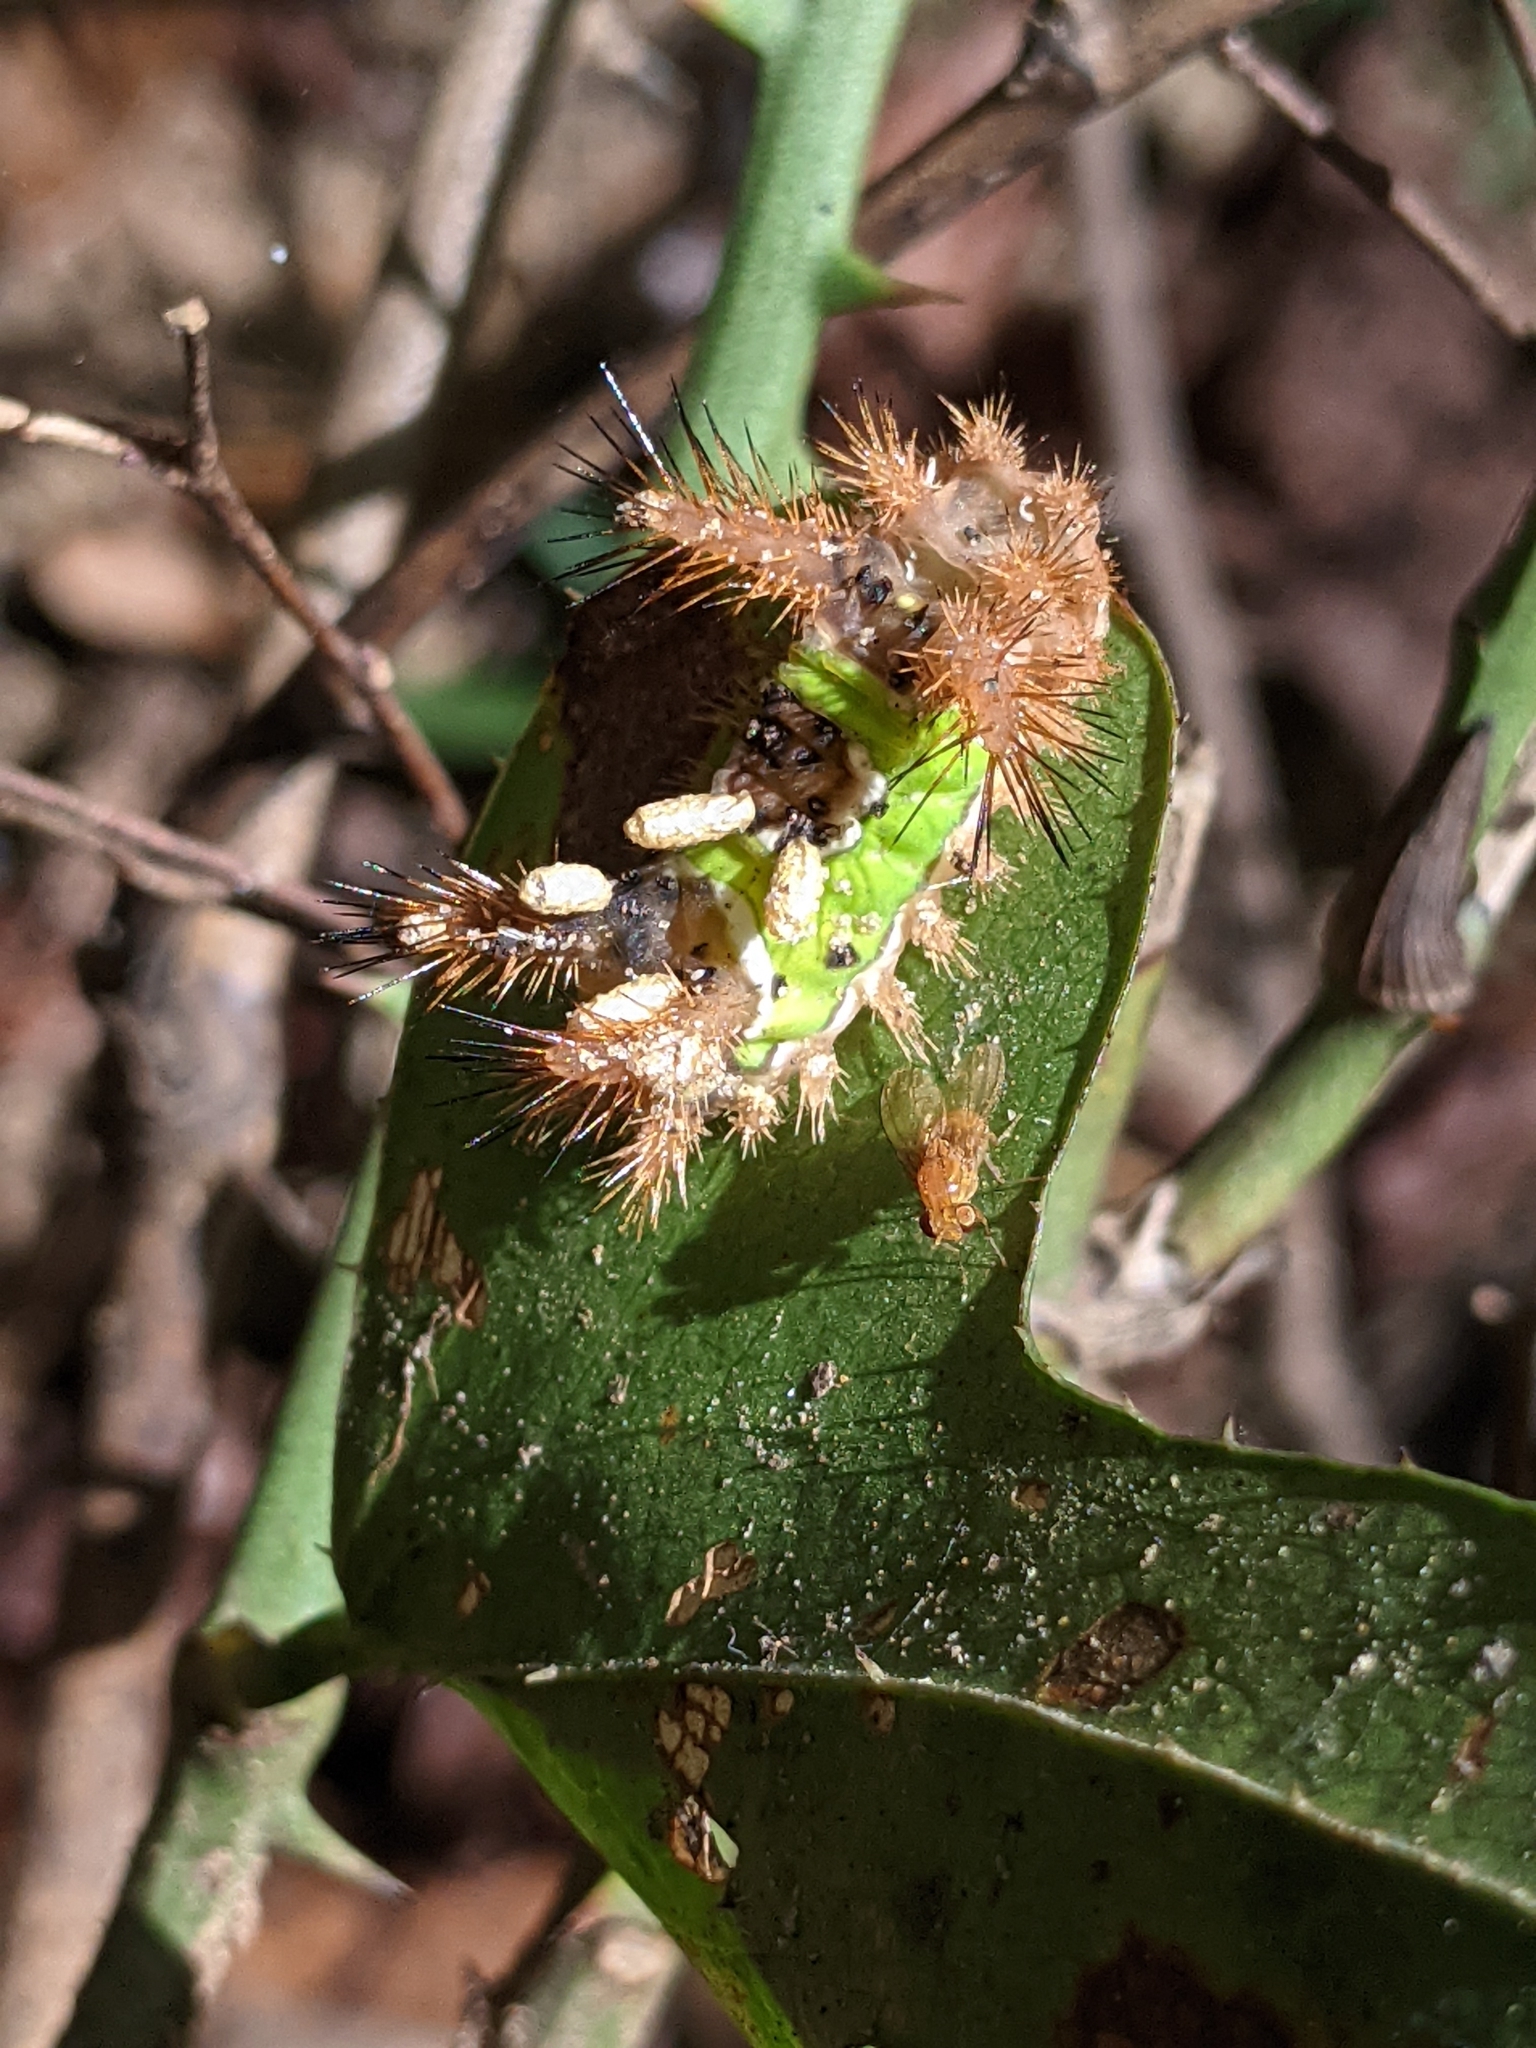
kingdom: Animalia
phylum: Arthropoda
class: Insecta
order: Hymenoptera
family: Braconidae
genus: Cotesia
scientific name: Cotesia empretiae
